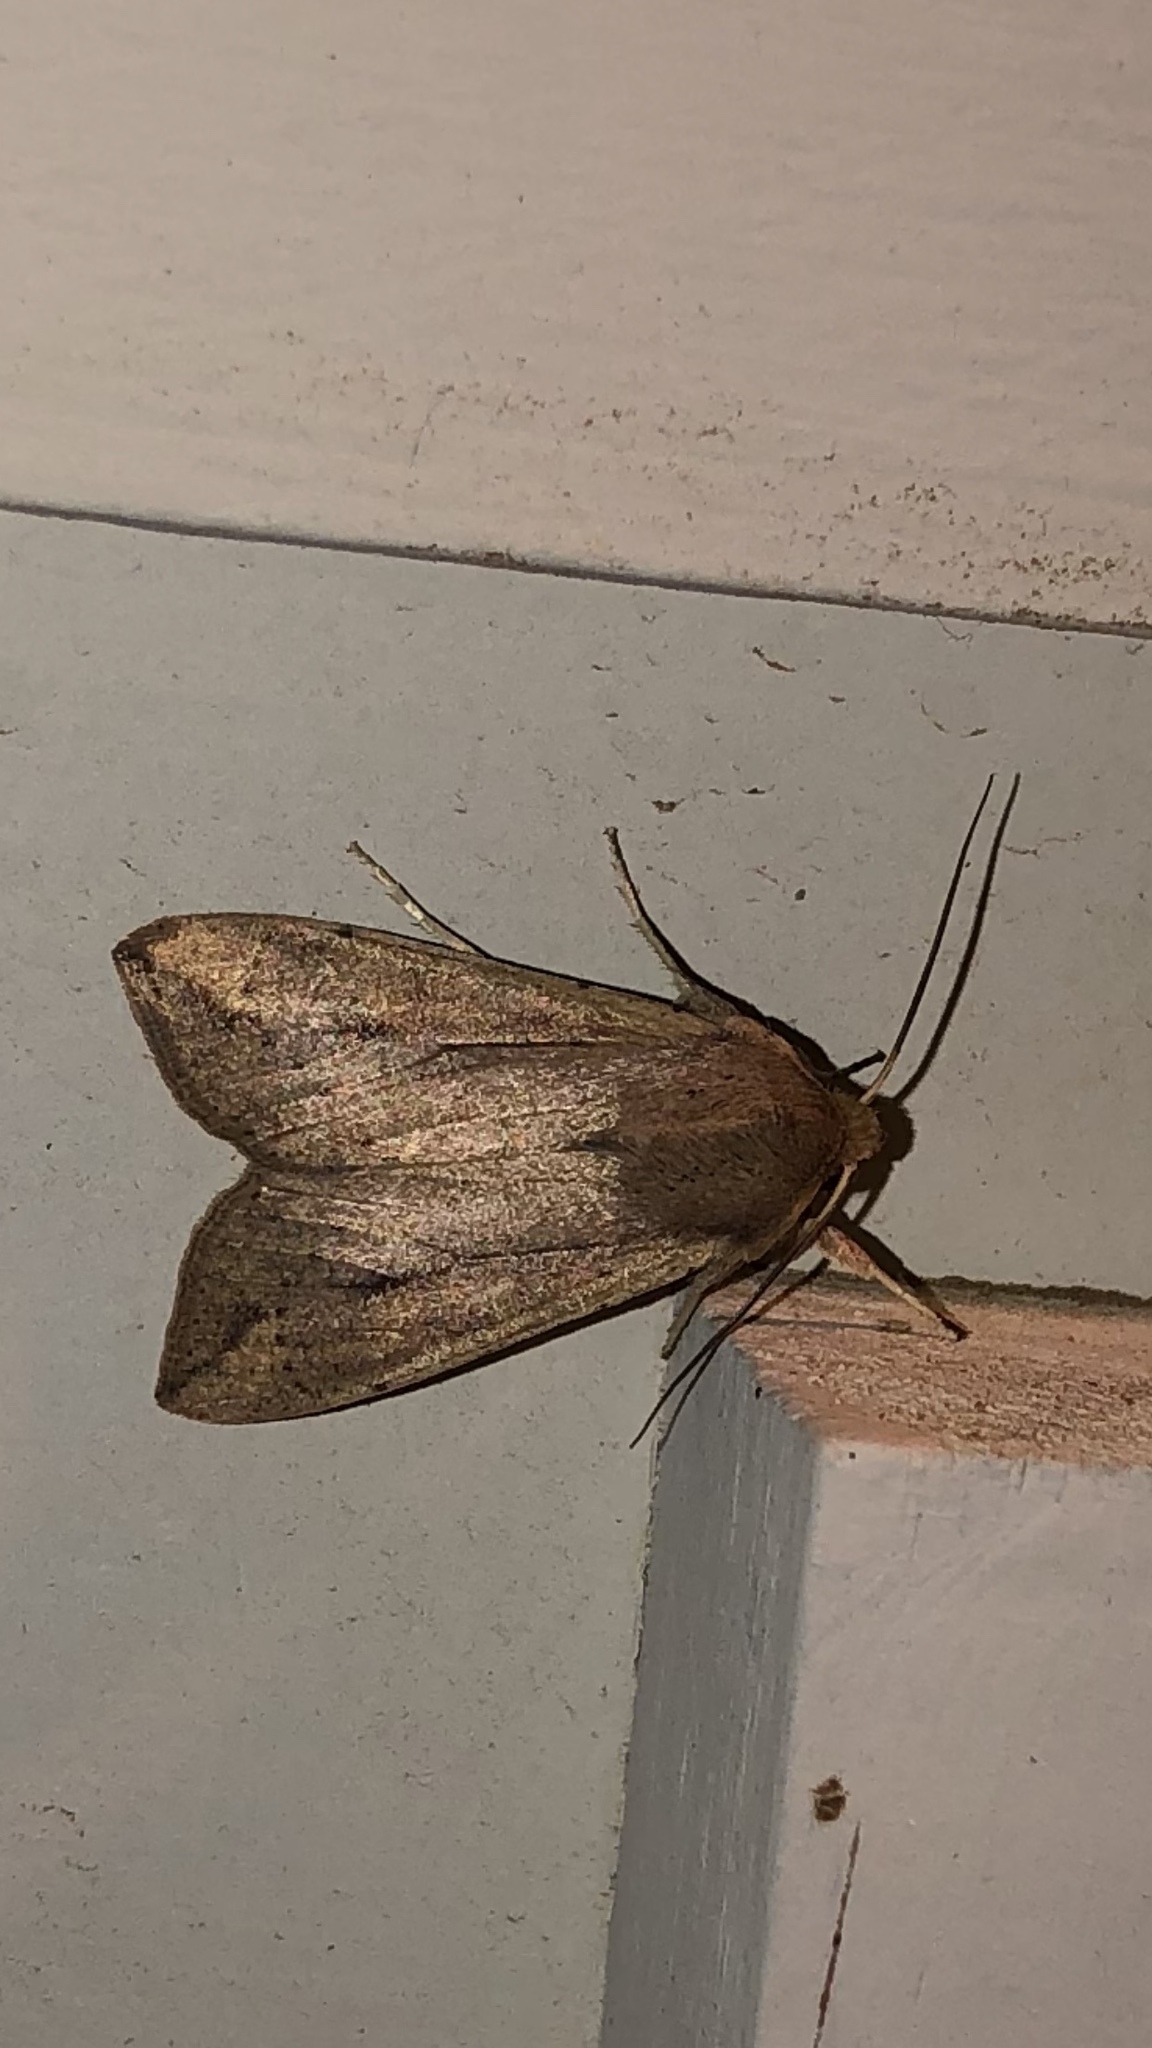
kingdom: Animalia
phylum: Arthropoda
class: Insecta
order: Lepidoptera
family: Noctuidae
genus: Mythimna
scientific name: Mythimna unipuncta
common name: White-speck
